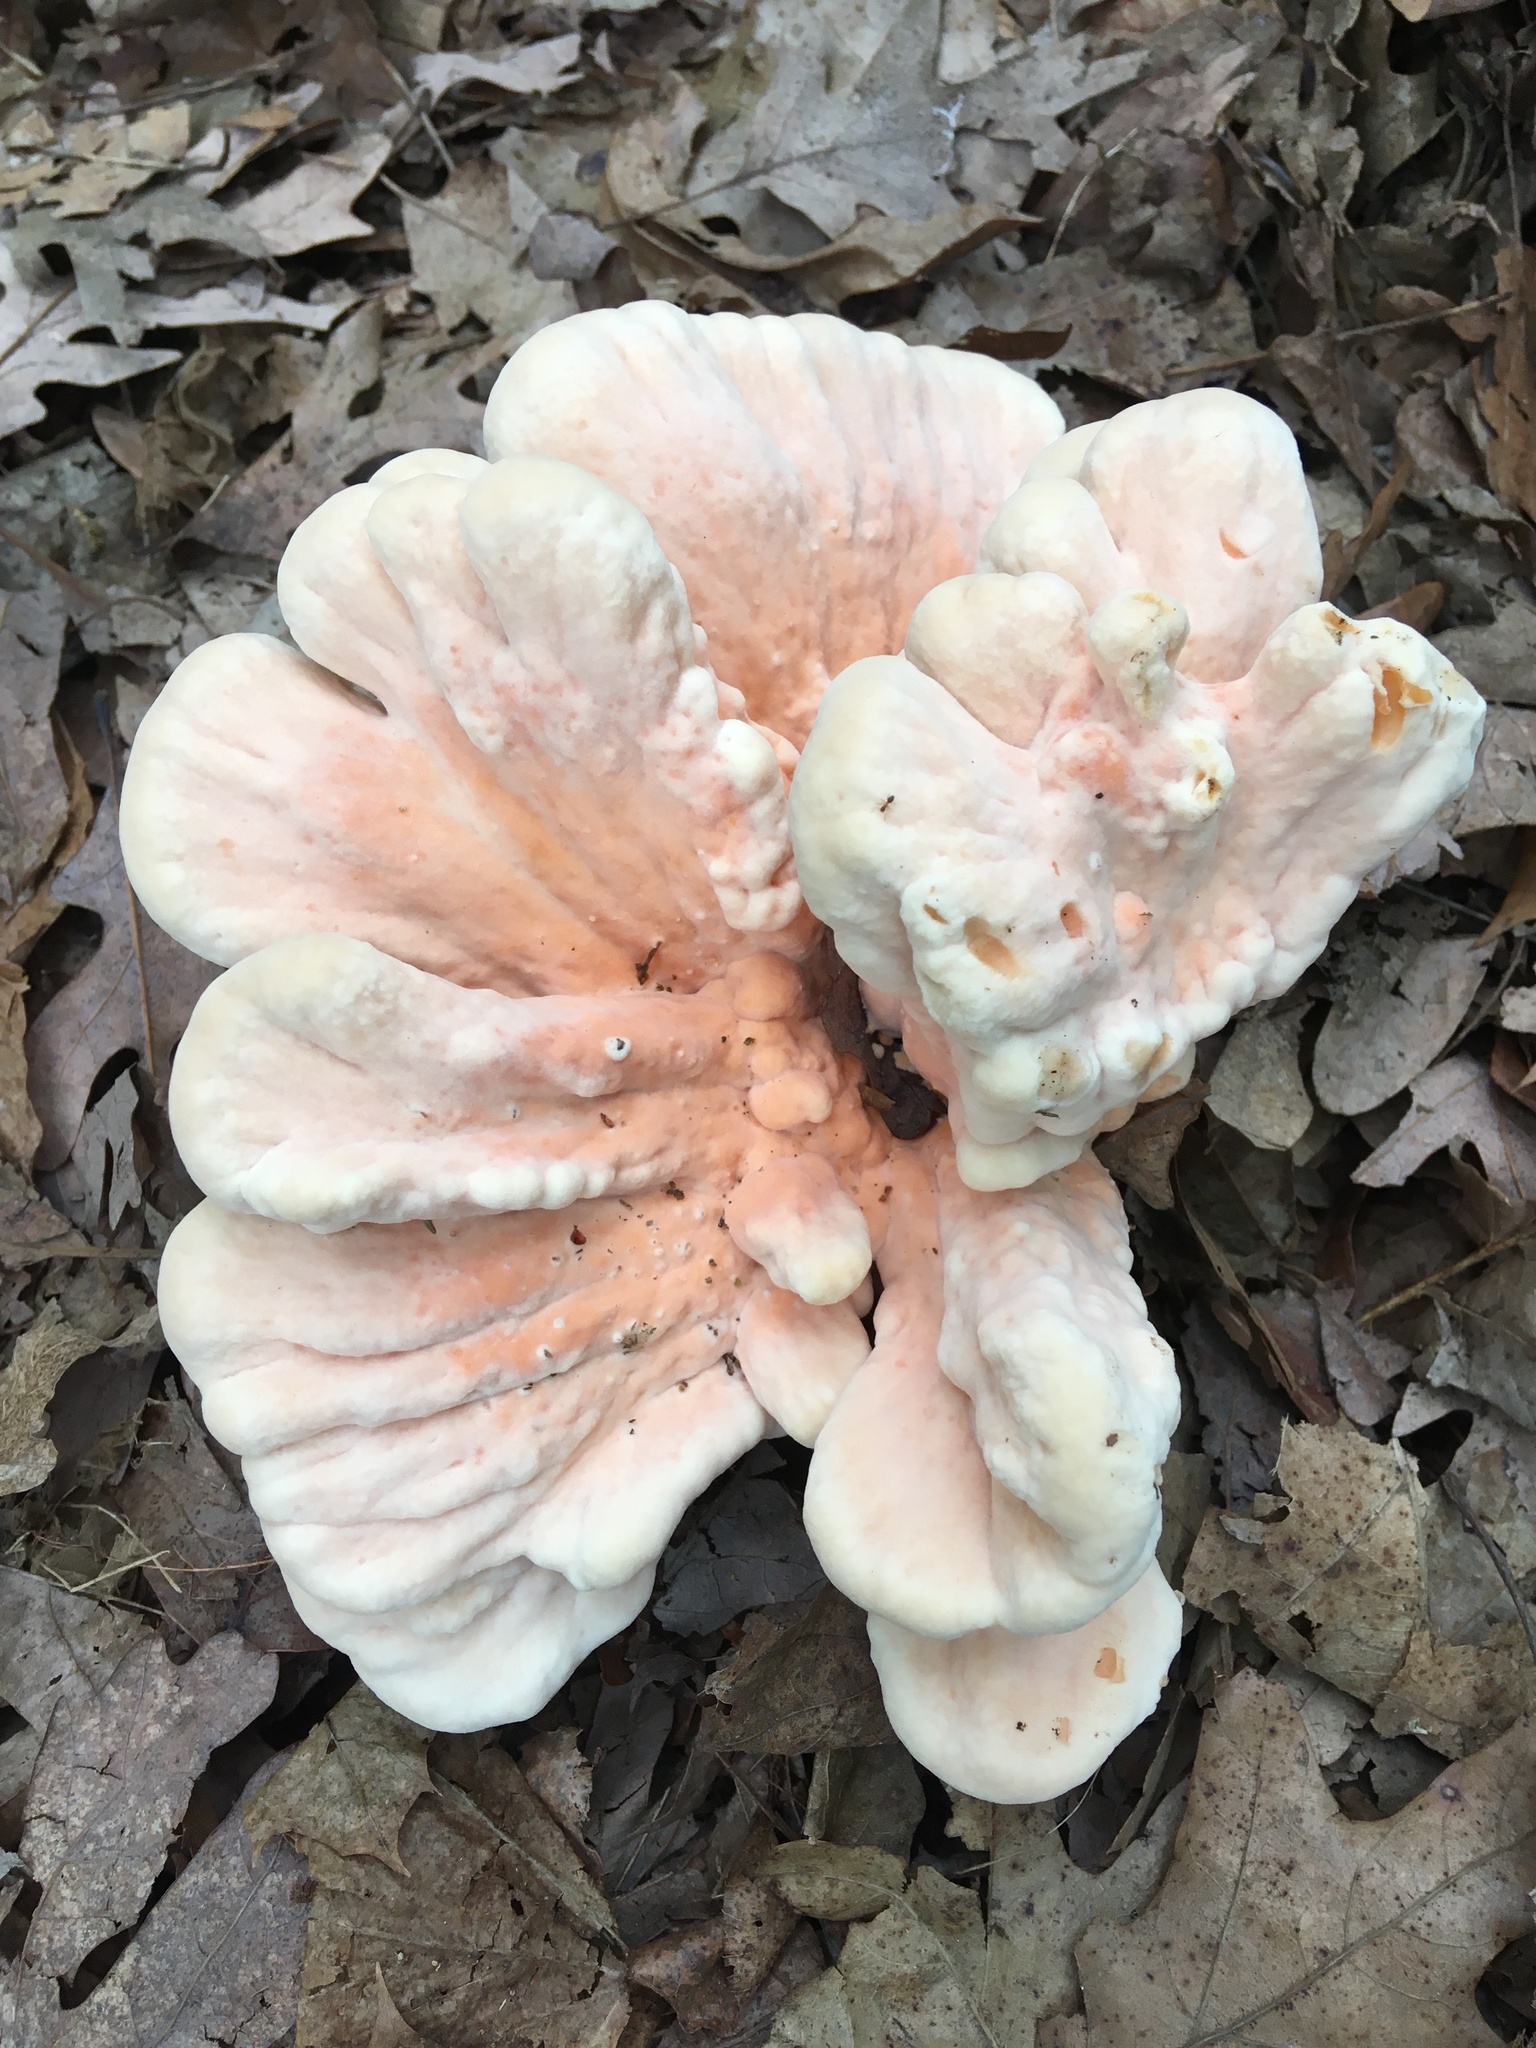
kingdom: Fungi
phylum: Basidiomycota
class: Agaricomycetes
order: Polyporales
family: Laetiporaceae
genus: Laetiporus
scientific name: Laetiporus sulphureus
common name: Chicken of the woods
